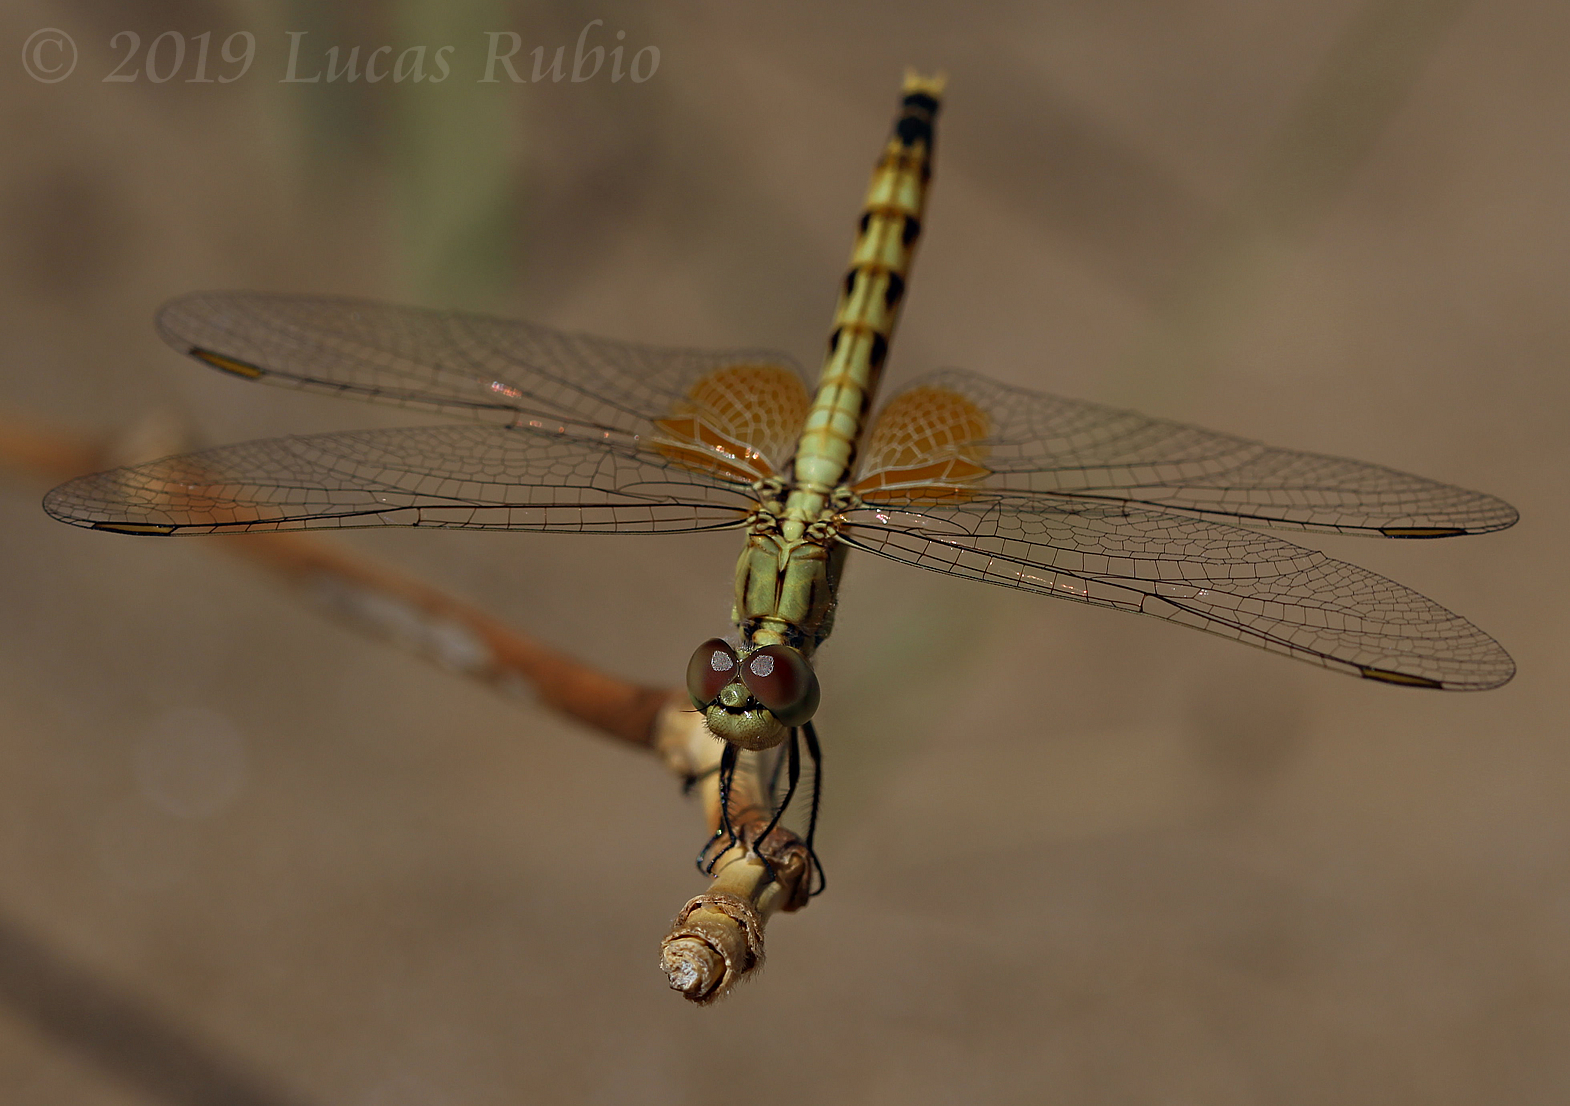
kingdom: Animalia
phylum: Arthropoda
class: Insecta
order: Odonata
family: Libellulidae
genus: Erythrodiplax
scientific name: Erythrodiplax corallina
